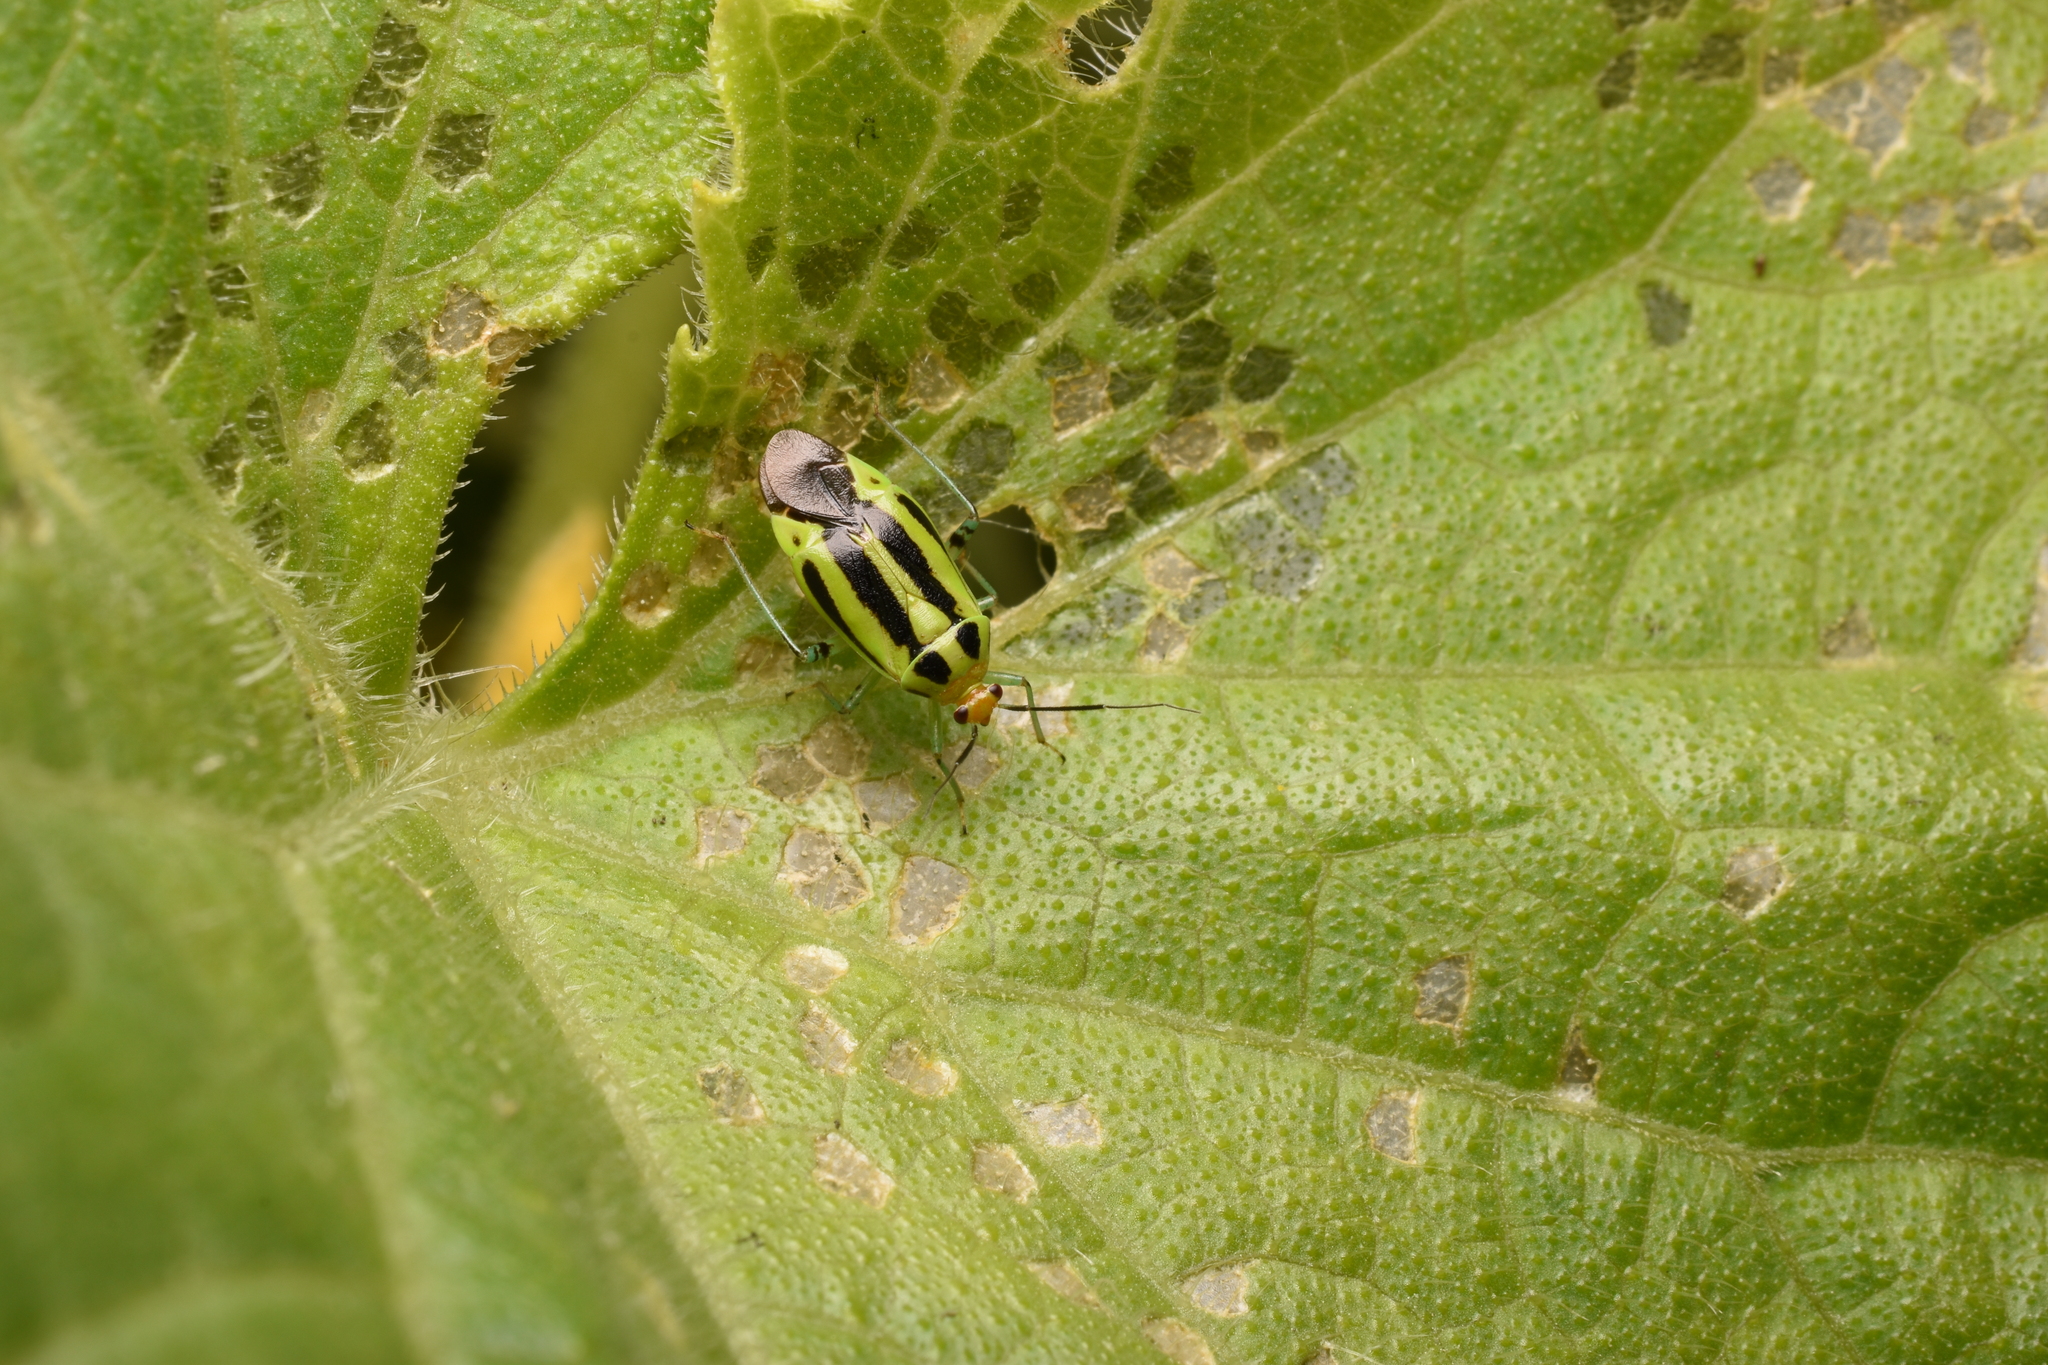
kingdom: Animalia
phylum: Arthropoda
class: Insecta
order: Hemiptera
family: Miridae
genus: Poecilocapsus
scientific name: Poecilocapsus lineatus
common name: Four-lined plant bug
